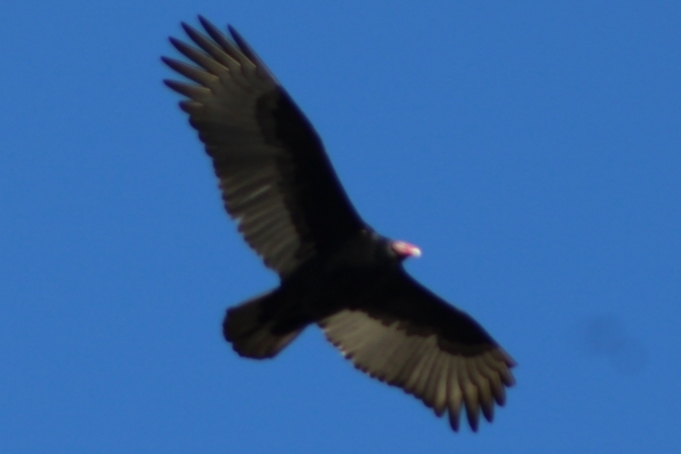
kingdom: Animalia
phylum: Chordata
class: Aves
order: Accipitriformes
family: Cathartidae
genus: Cathartes
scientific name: Cathartes aura
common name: Turkey vulture
